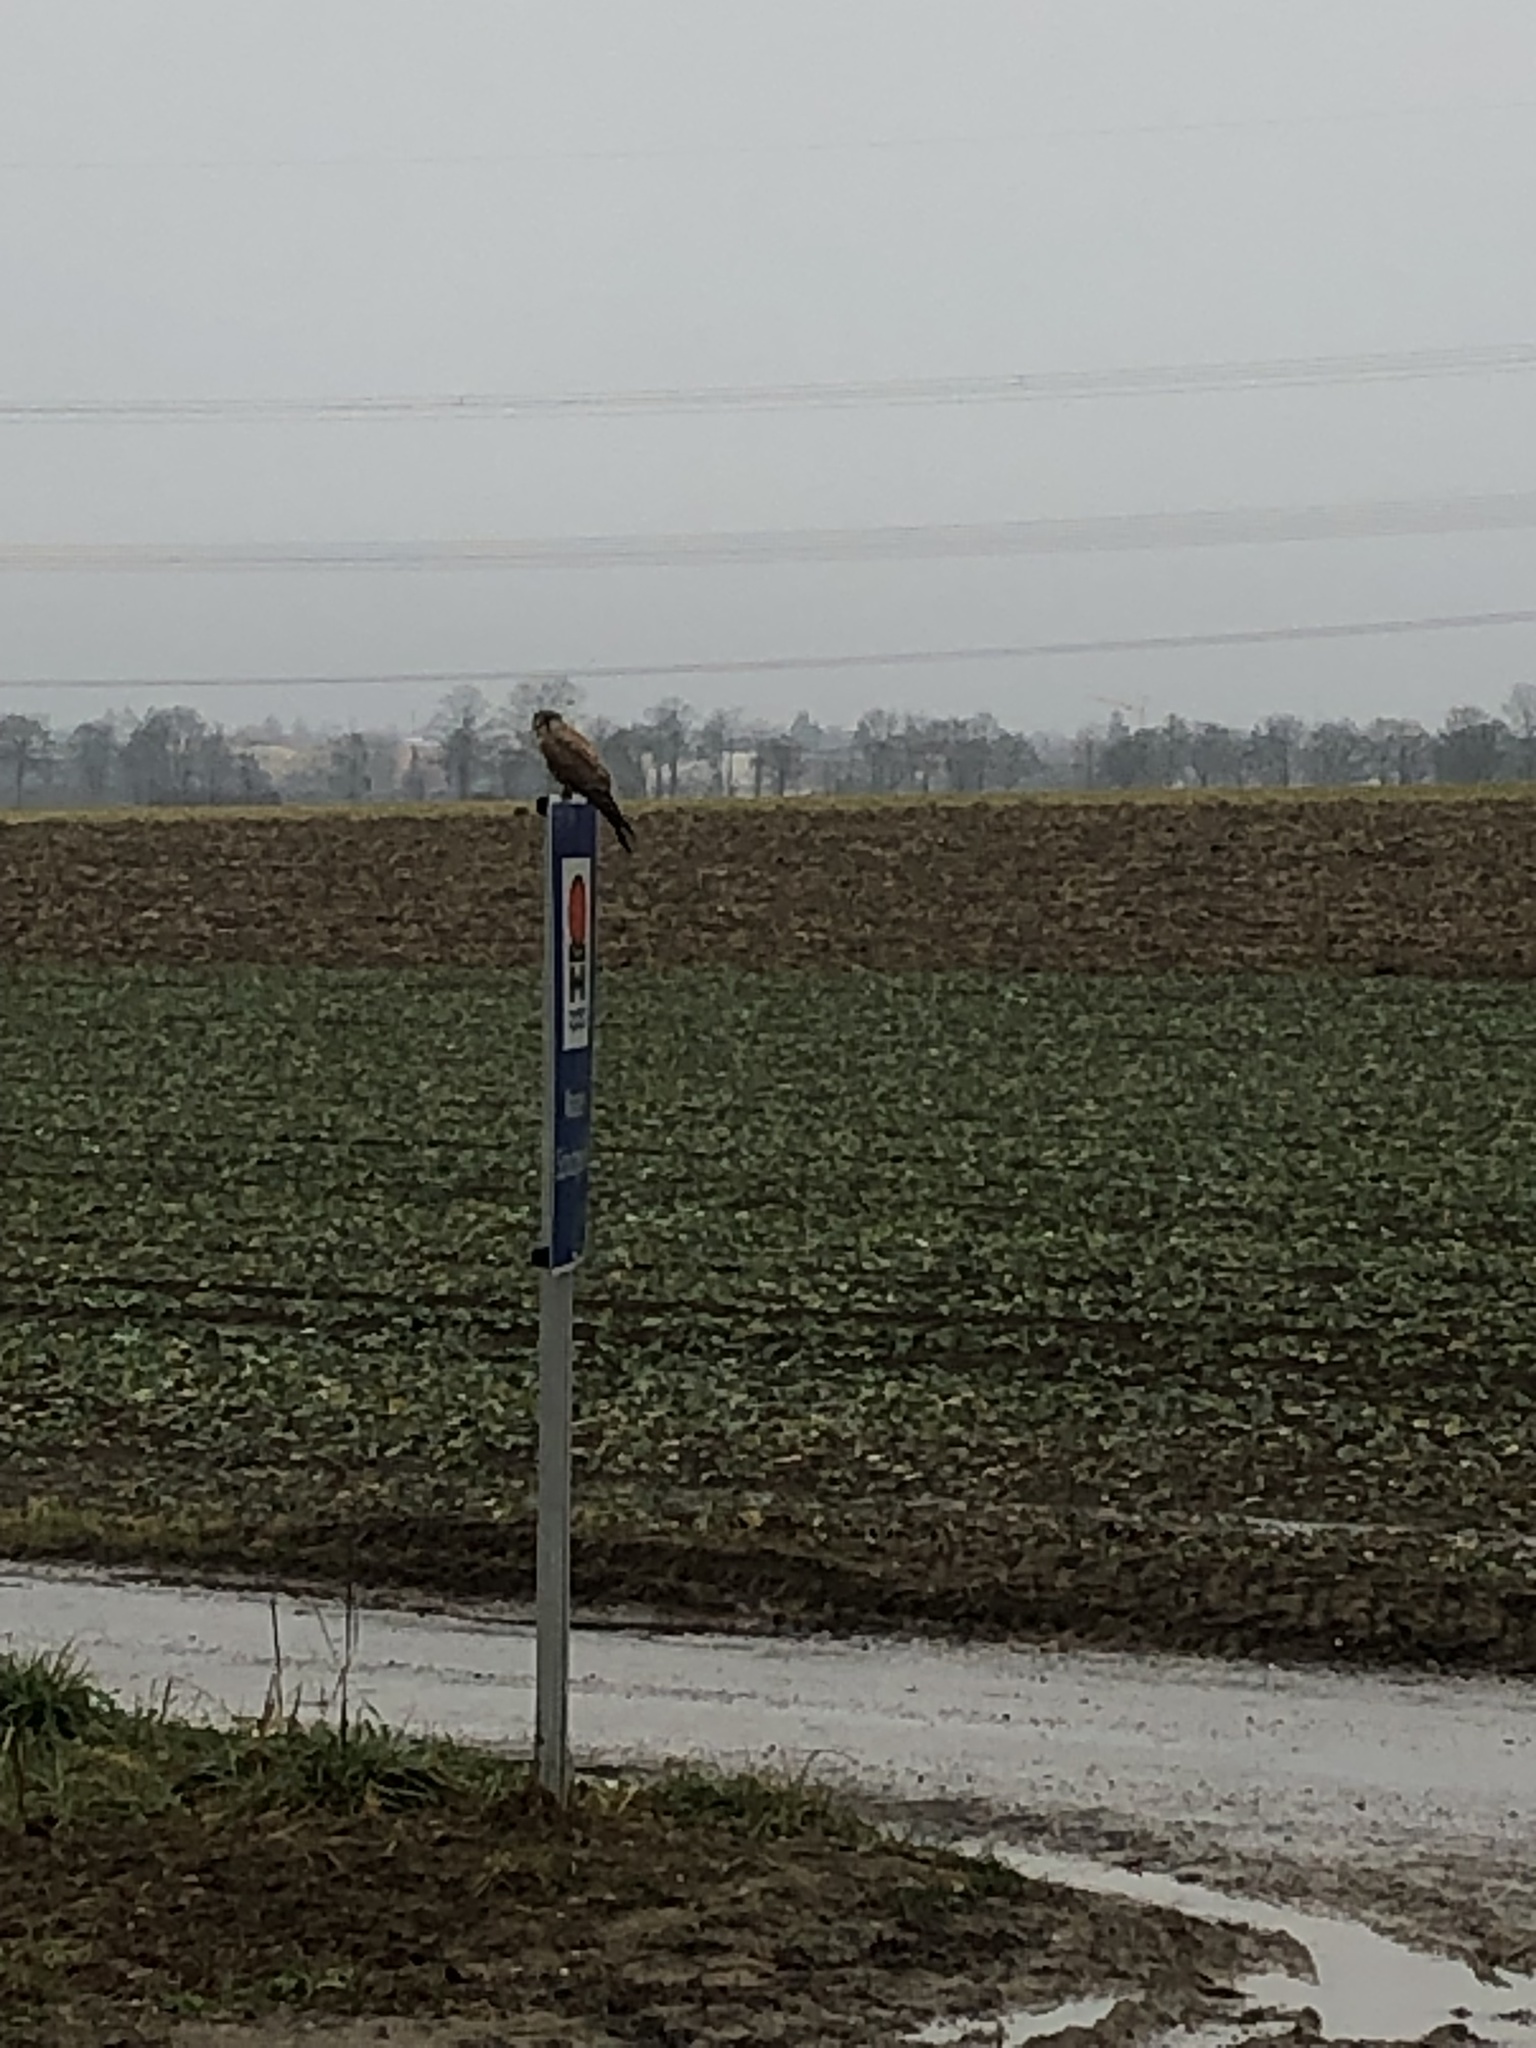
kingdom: Animalia
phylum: Chordata
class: Aves
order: Falconiformes
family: Falconidae
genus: Falco
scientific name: Falco tinnunculus
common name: Common kestrel
